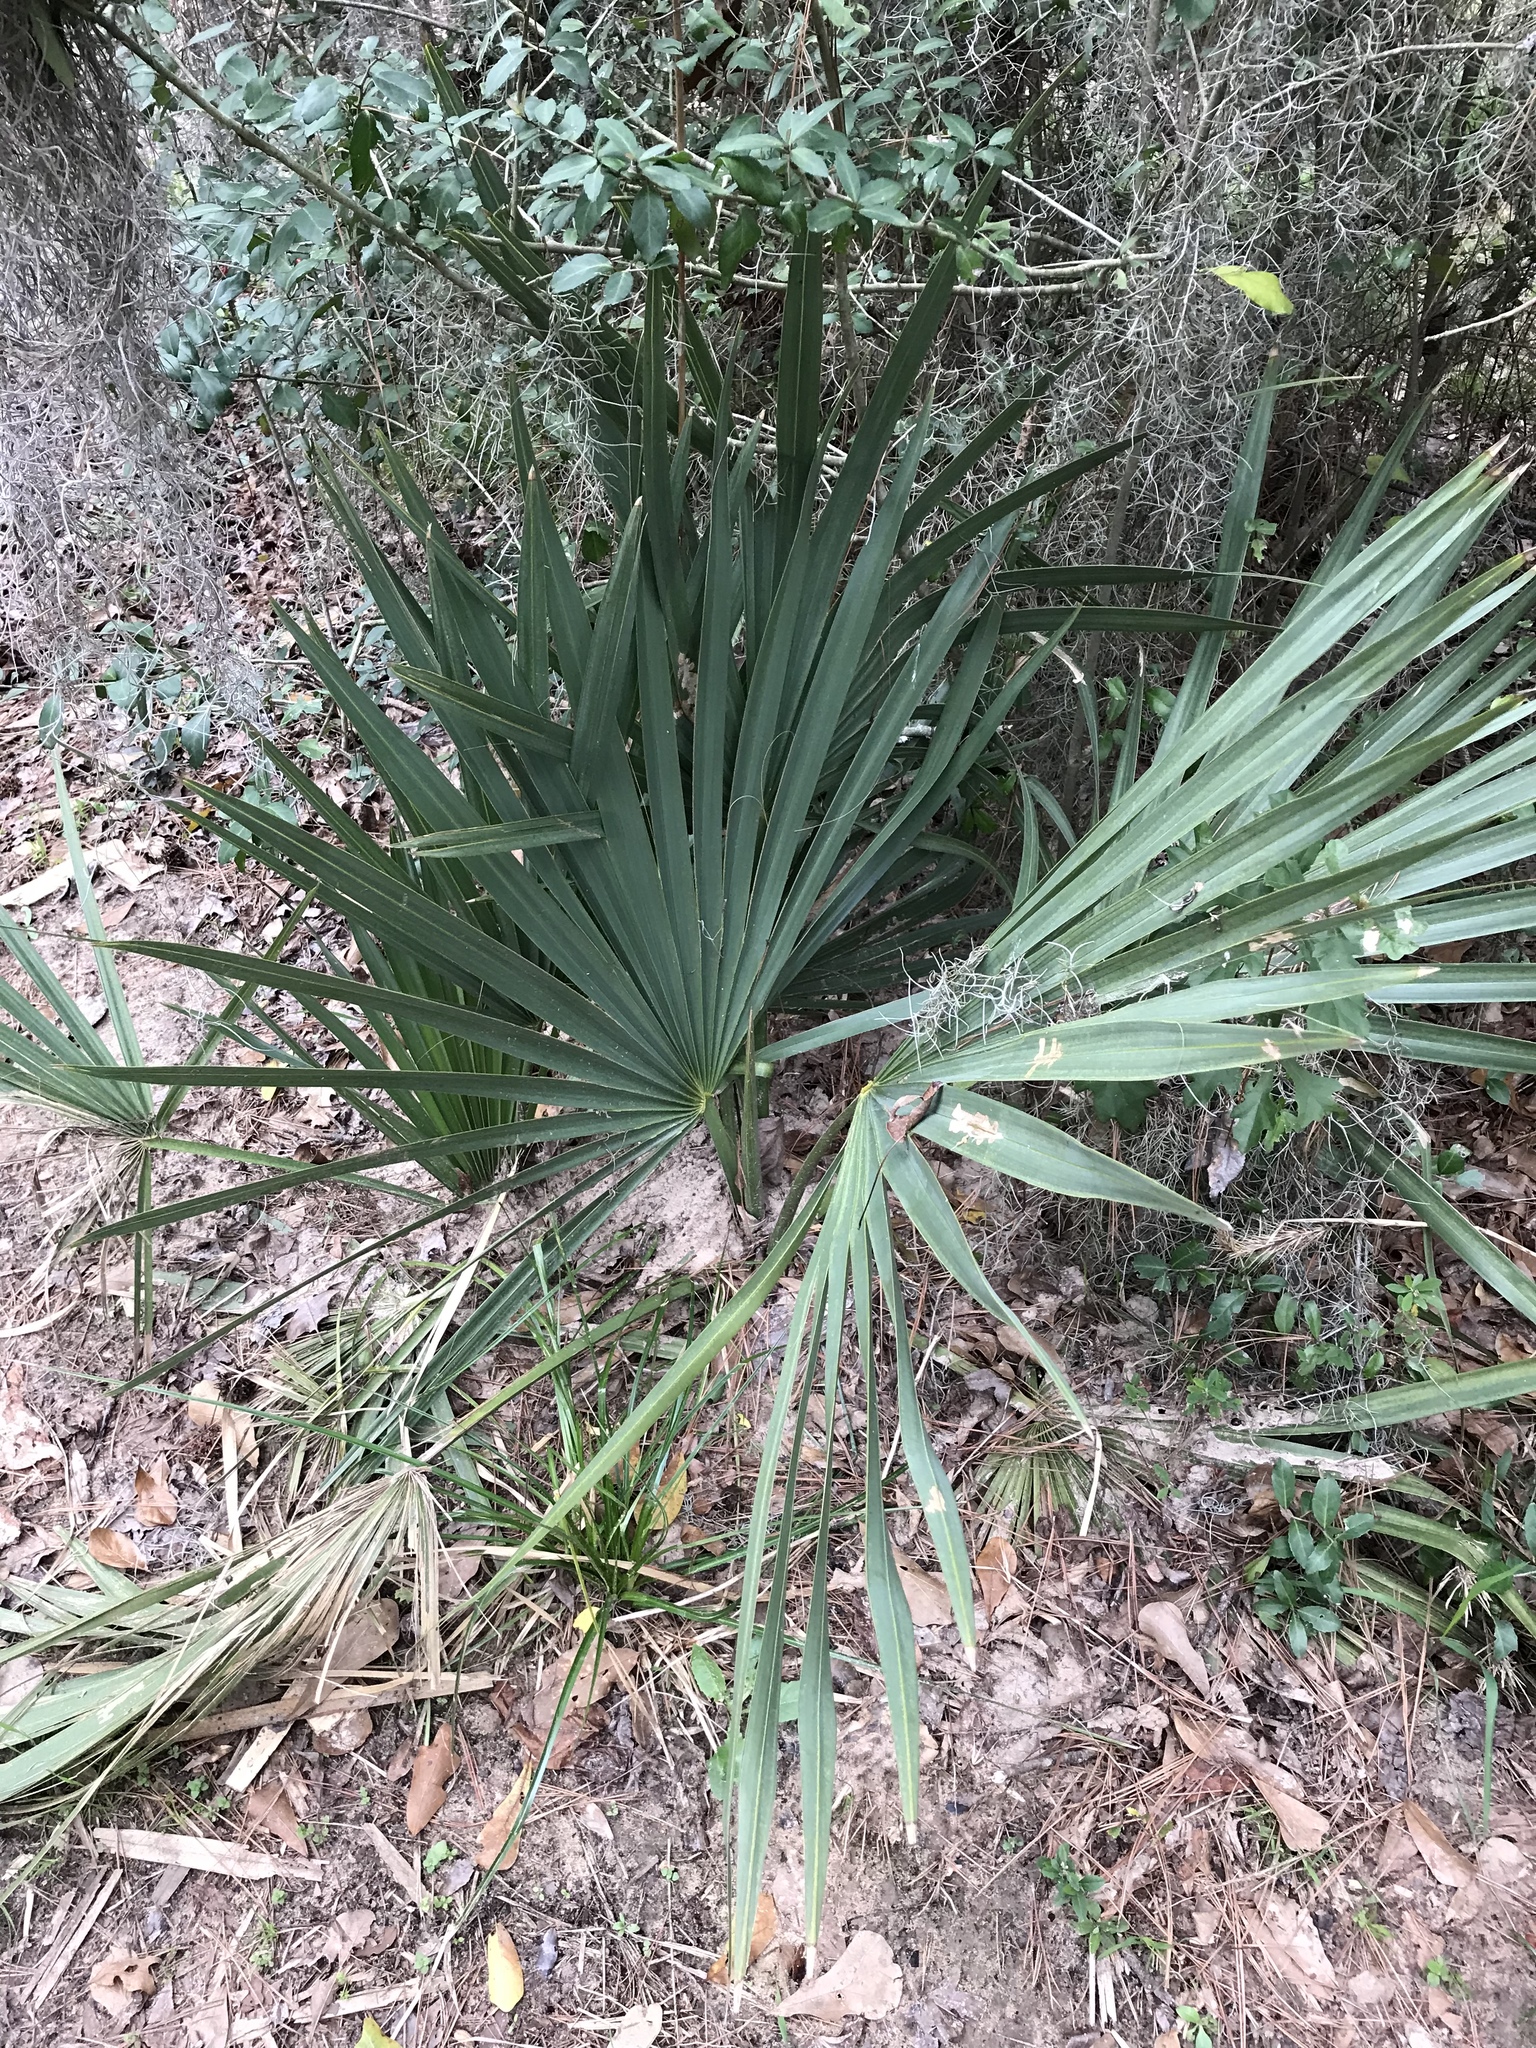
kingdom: Plantae
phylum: Tracheophyta
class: Liliopsida
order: Arecales
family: Arecaceae
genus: Sabal
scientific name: Sabal minor
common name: Dwarf palmetto
